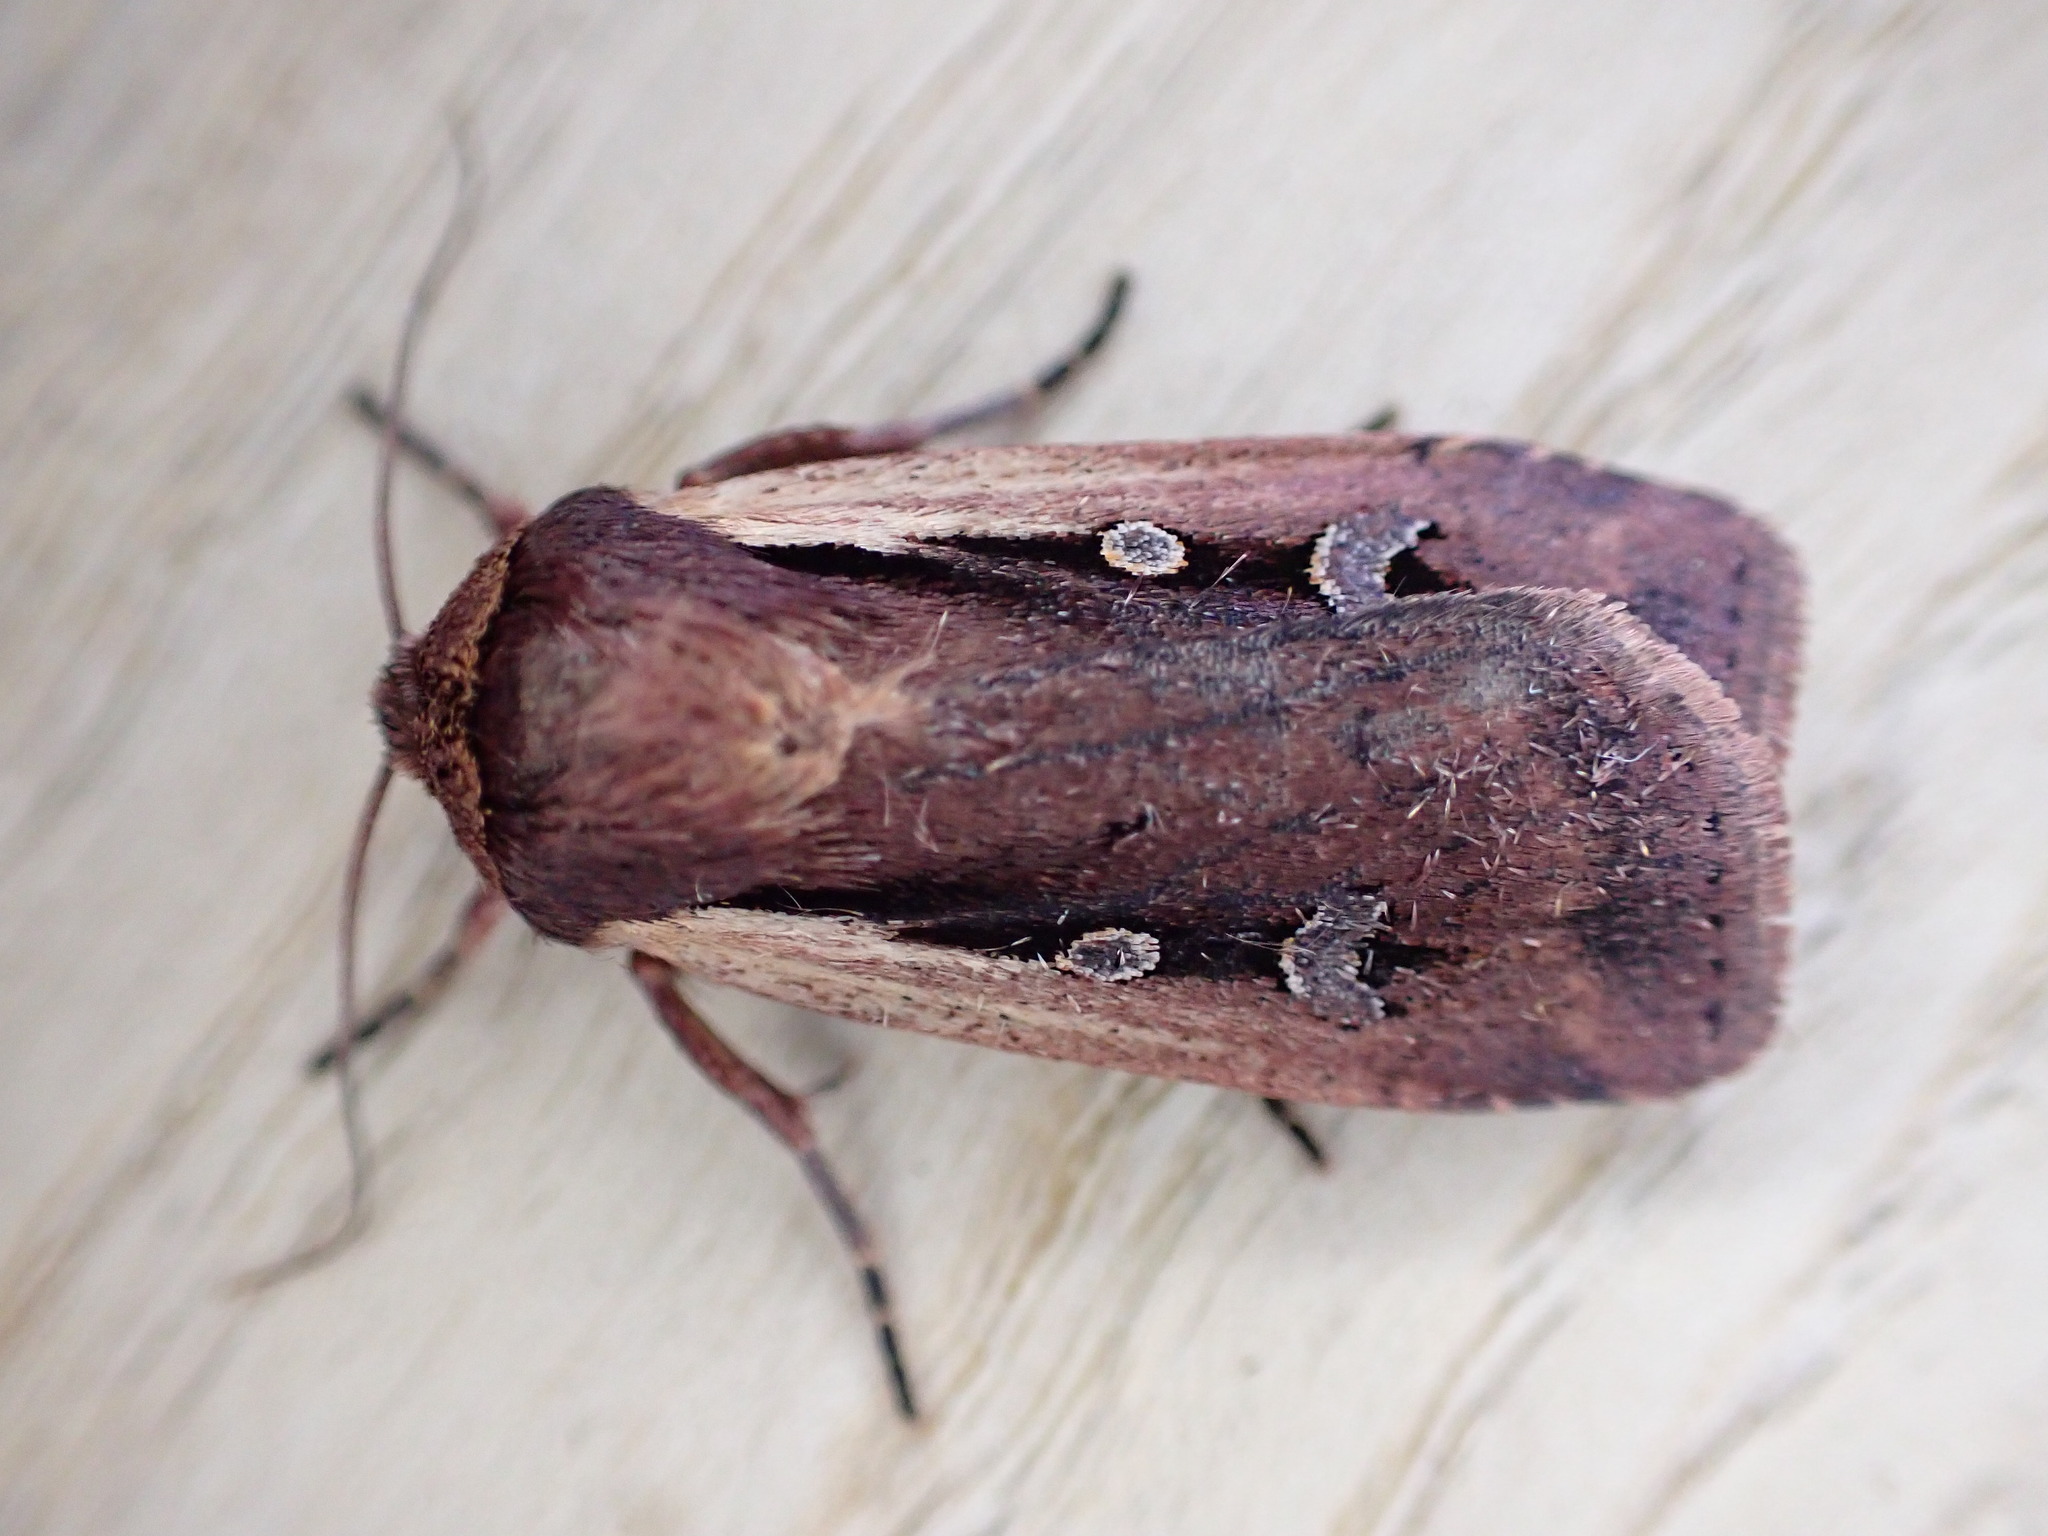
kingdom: Animalia
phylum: Arthropoda
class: Insecta
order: Lepidoptera
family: Noctuidae
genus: Ochropleura
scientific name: Ochropleura plecta
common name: Flame shoulder
